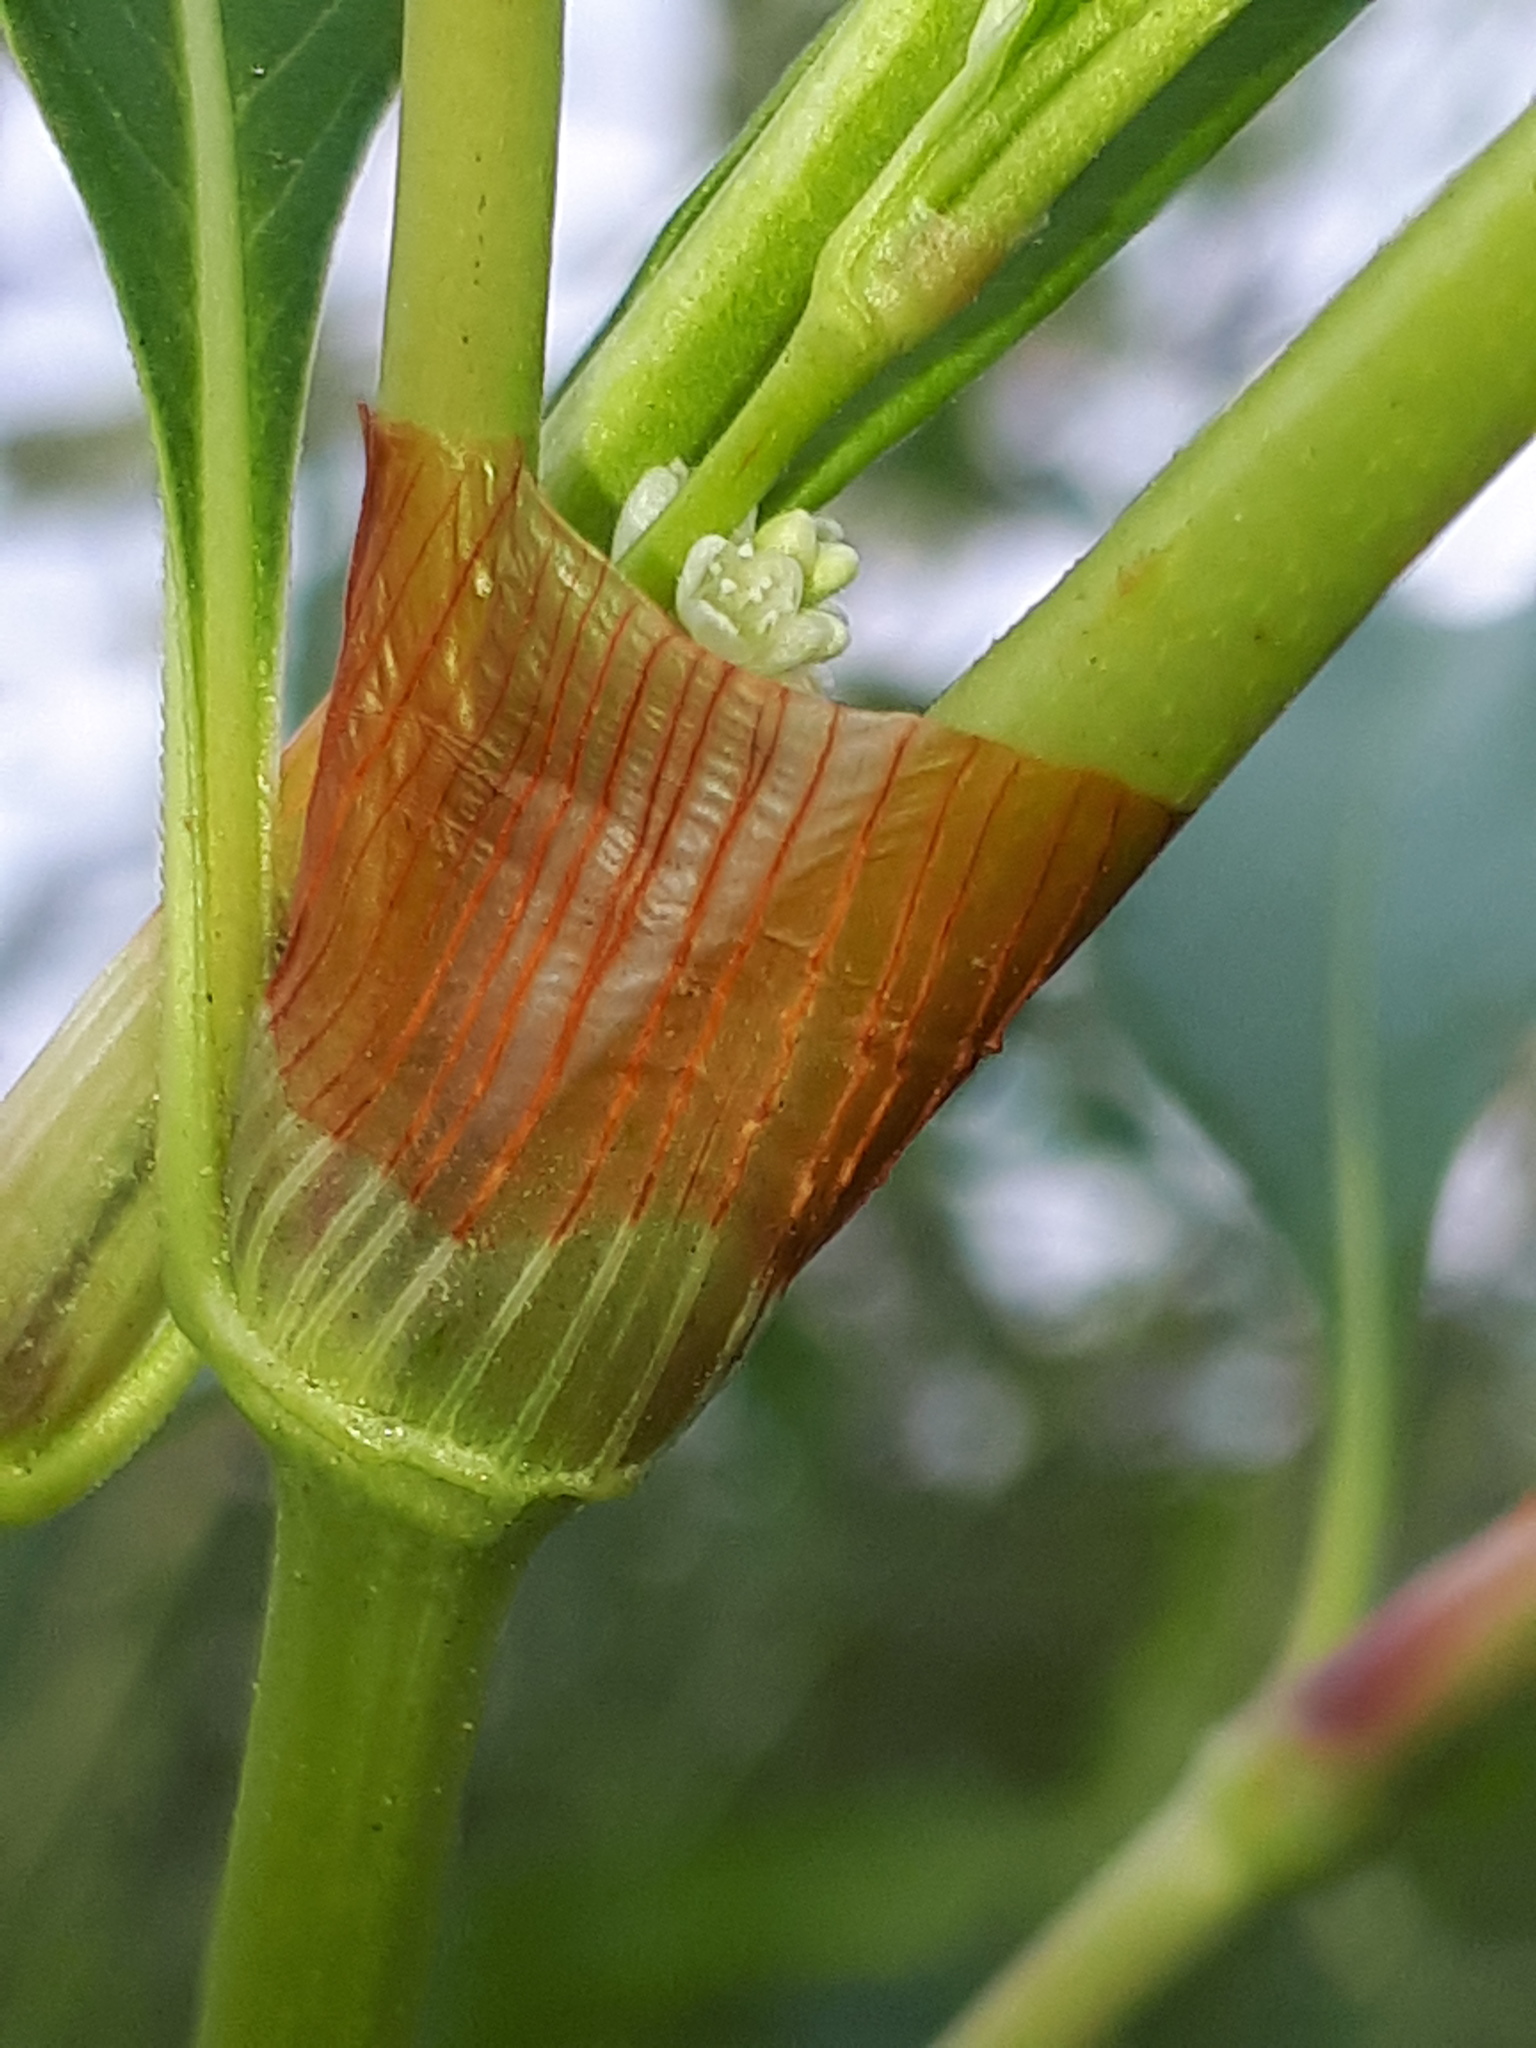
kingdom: Plantae
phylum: Tracheophyta
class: Magnoliopsida
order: Caryophyllales
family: Polygonaceae
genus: Persicaria
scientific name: Persicaria lapathifolia
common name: Curlytop knotweed
